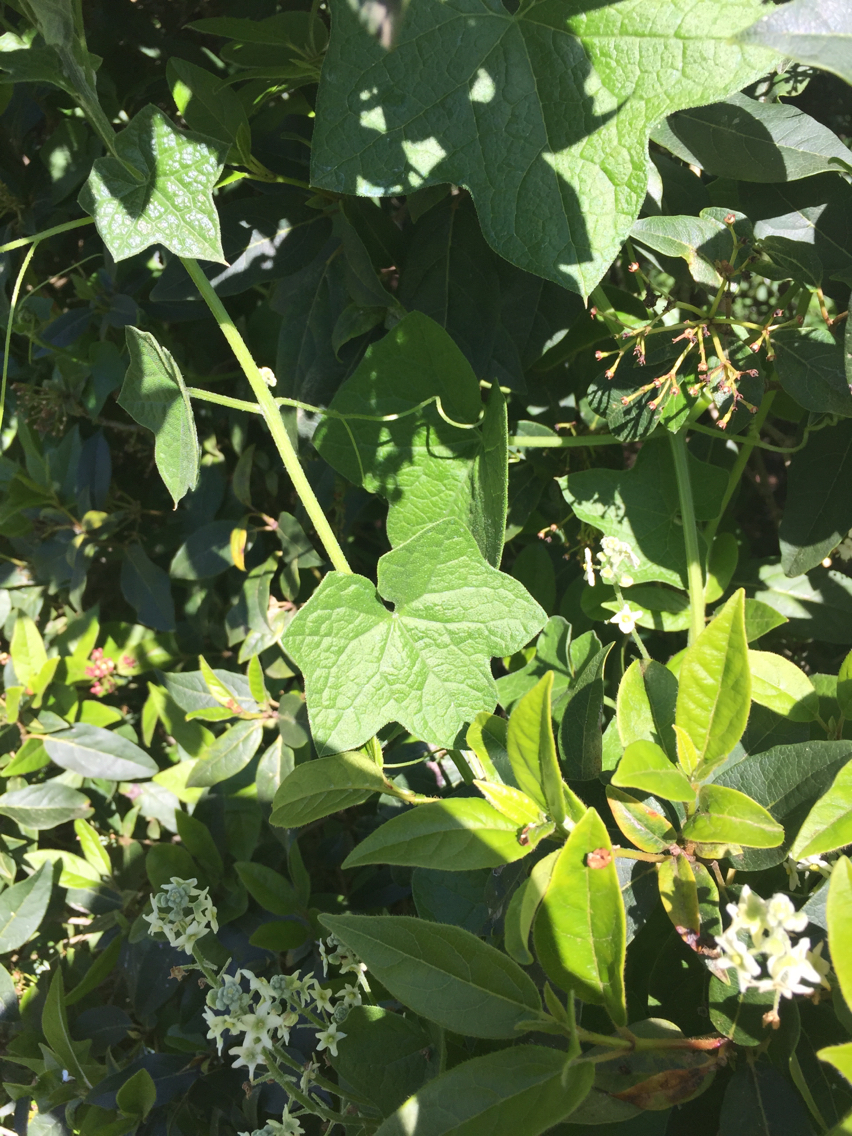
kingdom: Plantae
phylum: Tracheophyta
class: Magnoliopsida
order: Cucurbitales
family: Cucurbitaceae
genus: Marah
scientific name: Marah fabacea
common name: California manroot
